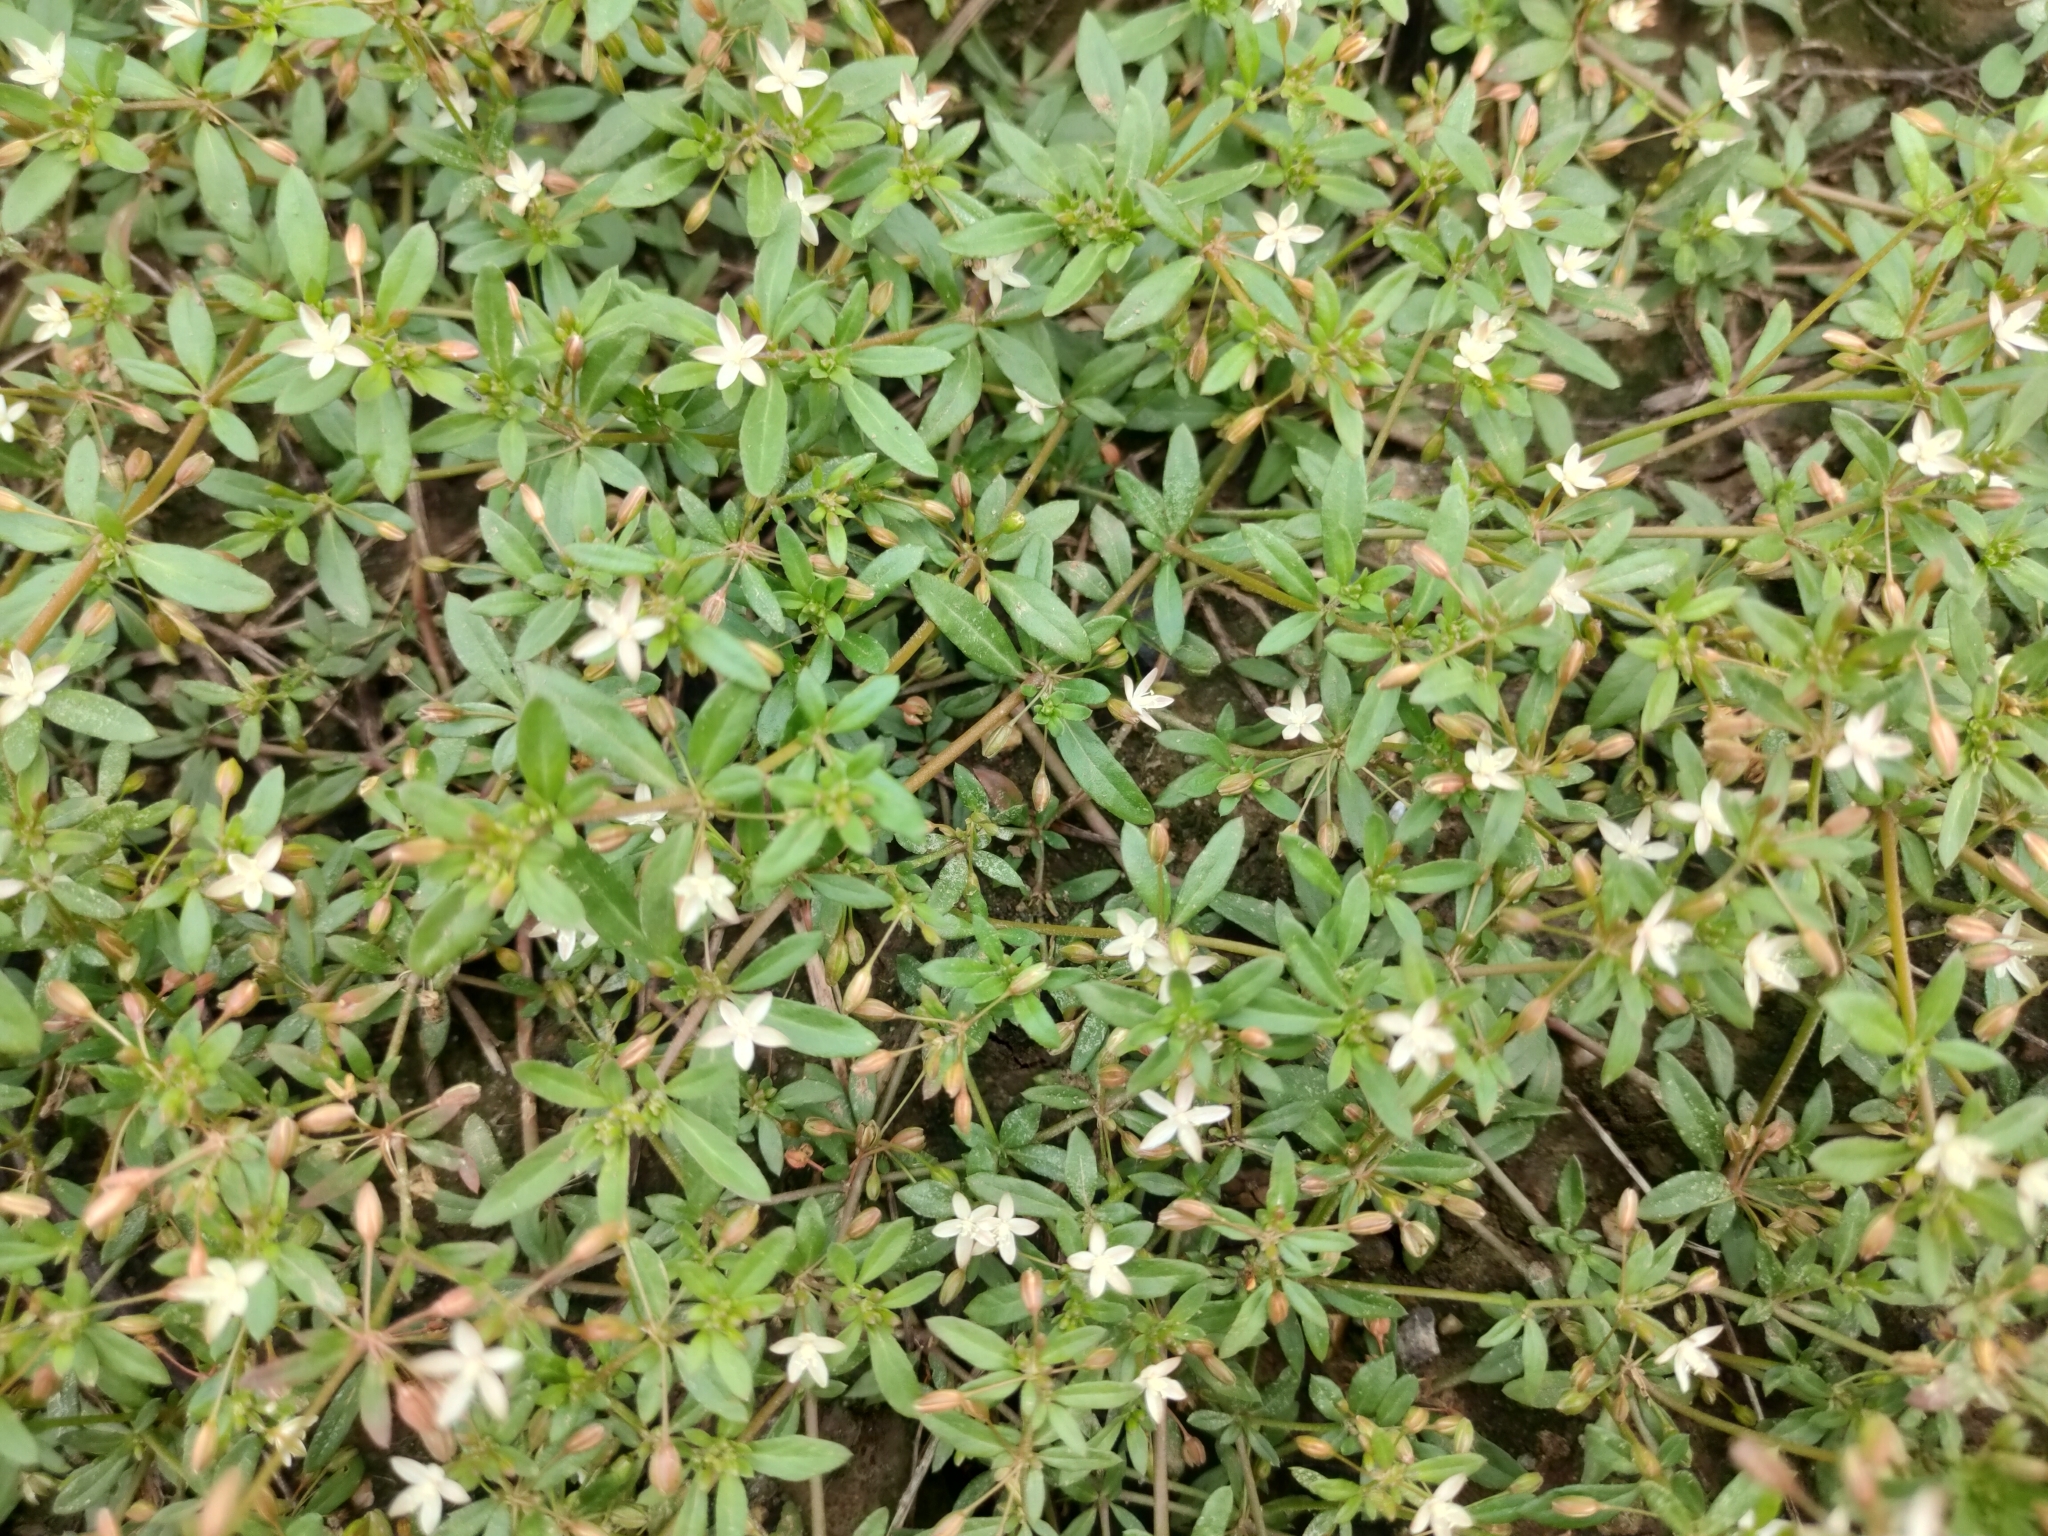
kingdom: Plantae
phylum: Tracheophyta
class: Magnoliopsida
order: Caryophyllales
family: Molluginaceae
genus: Glinus
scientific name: Glinus oppositifolius
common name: Slender carpetweed
